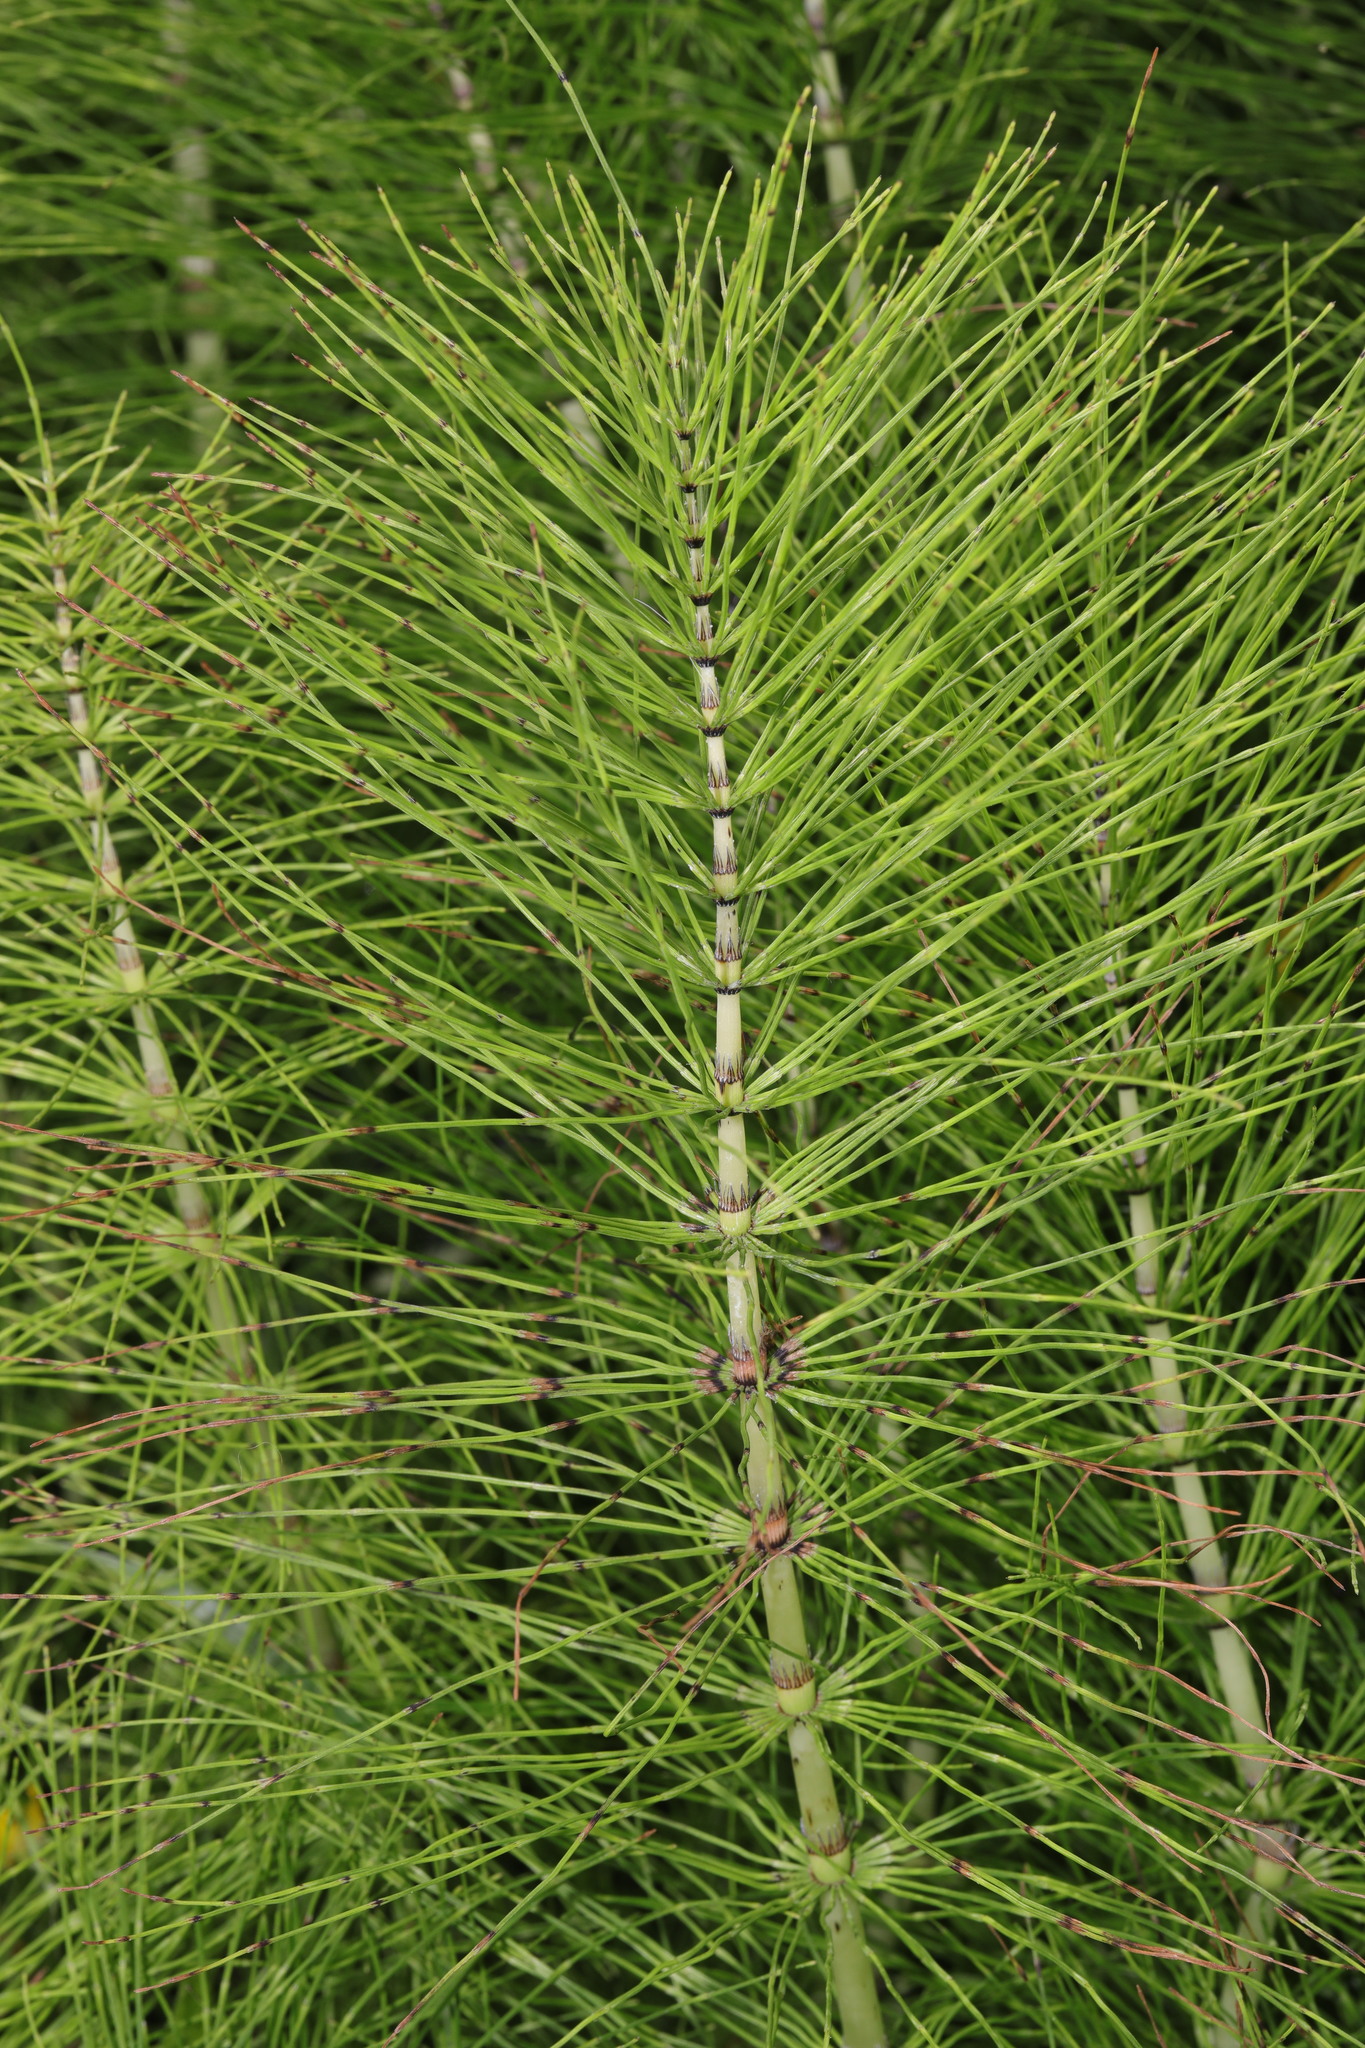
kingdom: Plantae
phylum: Tracheophyta
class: Polypodiopsida
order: Equisetales
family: Equisetaceae
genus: Equisetum
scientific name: Equisetum telmateia
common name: Great horsetail
